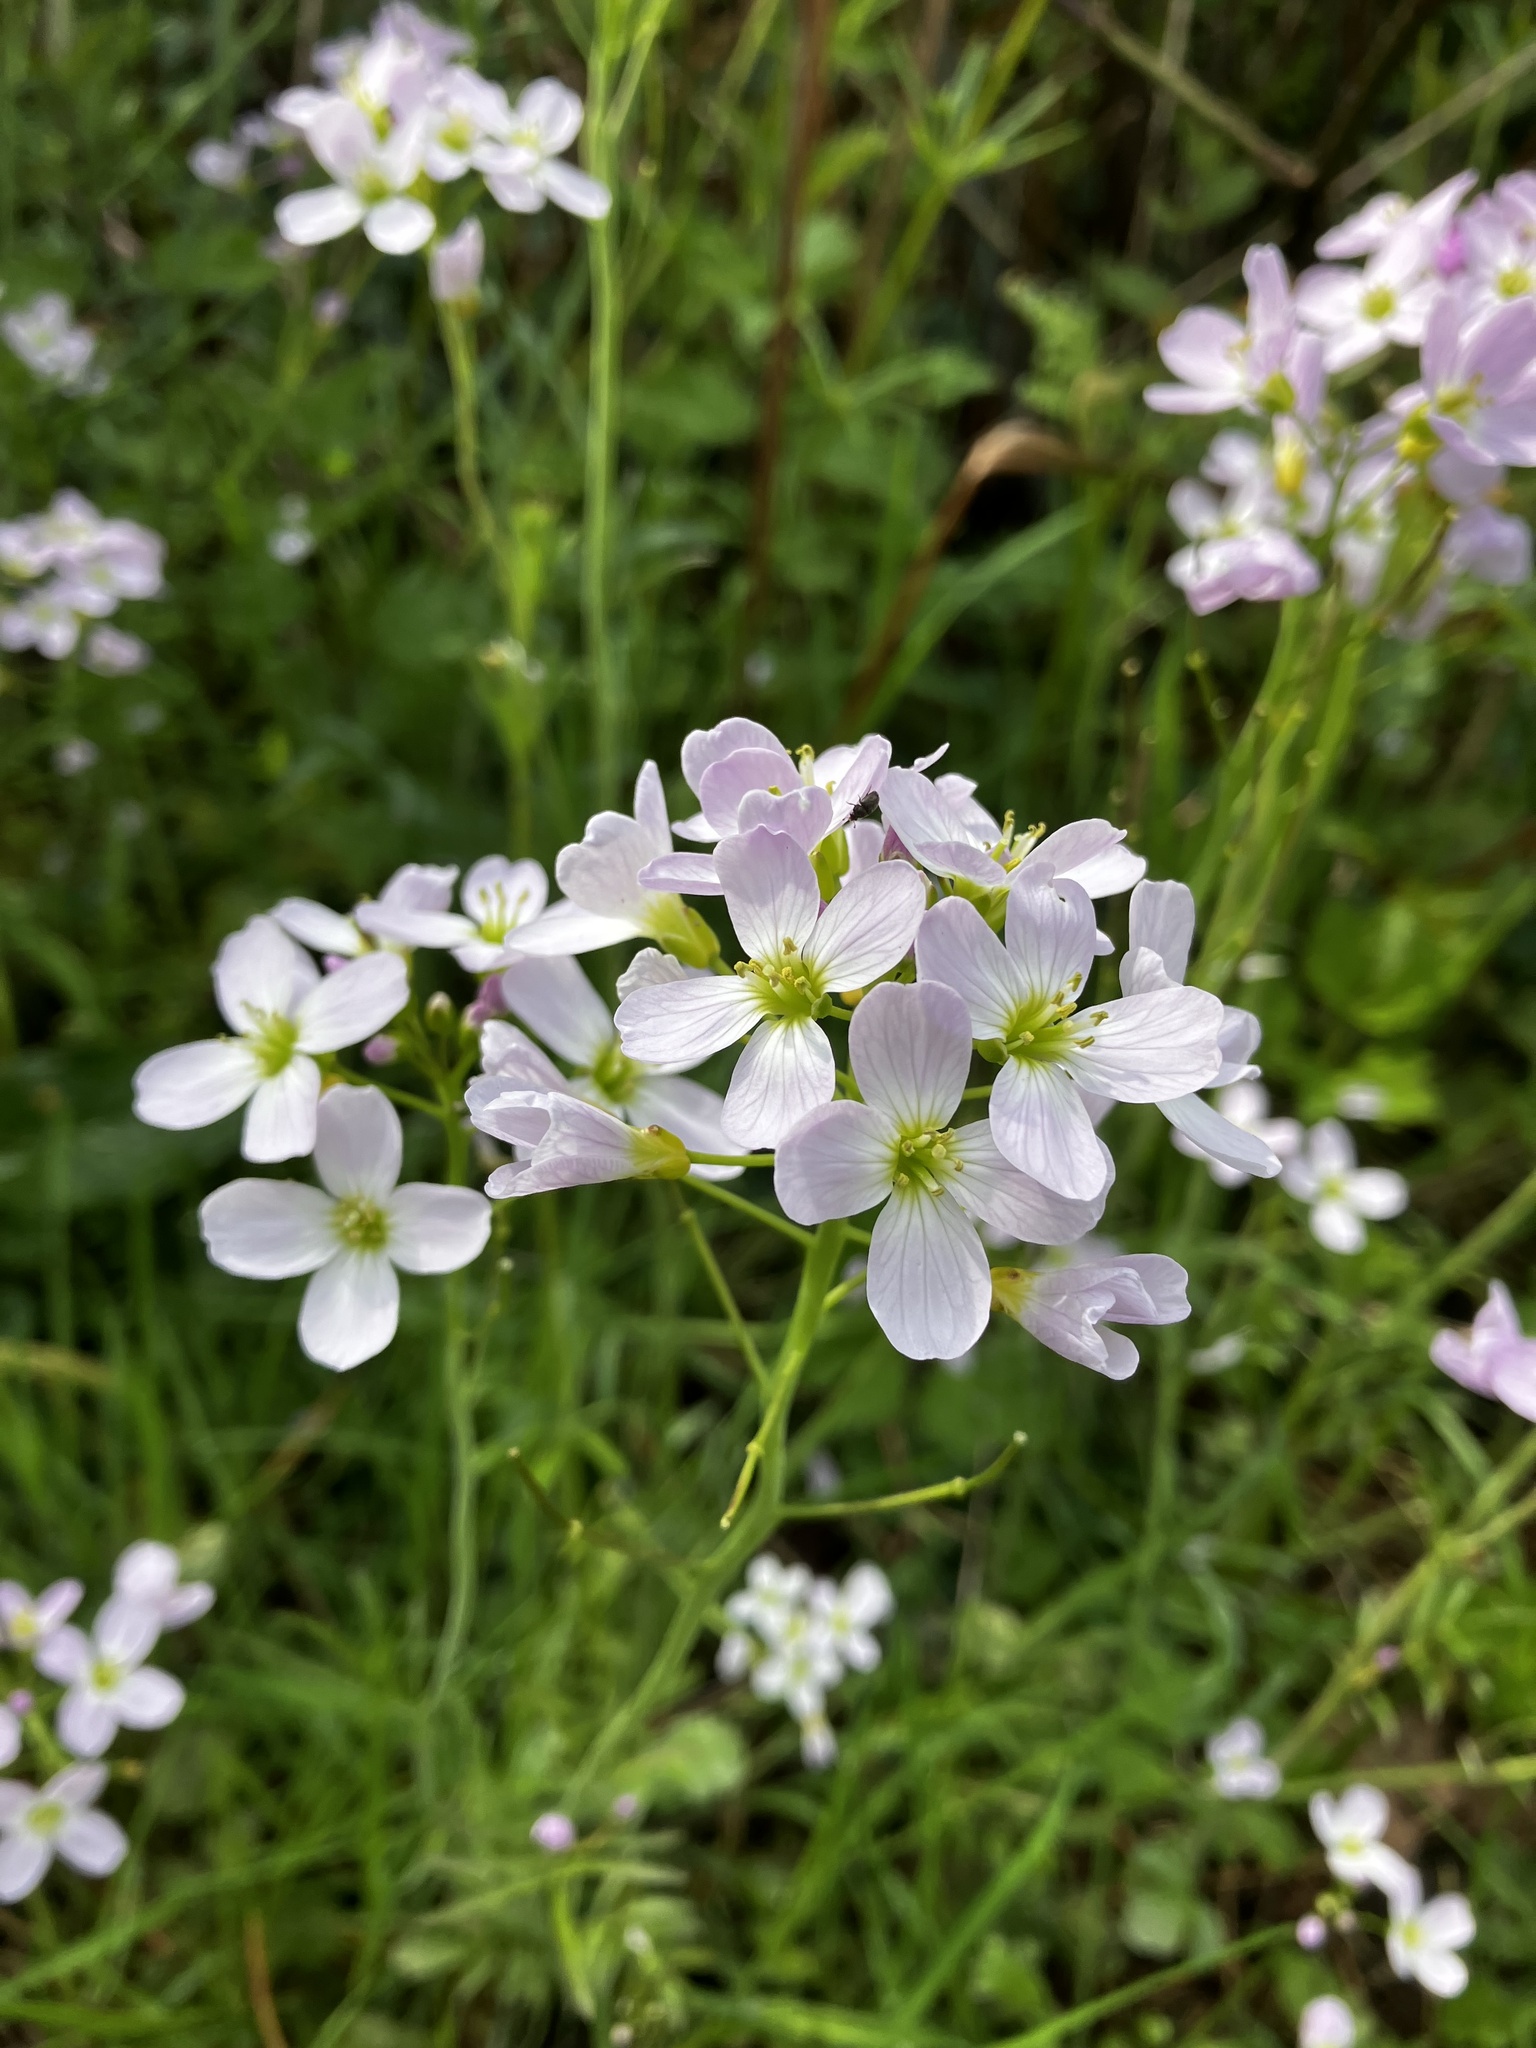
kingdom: Plantae
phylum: Tracheophyta
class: Magnoliopsida
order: Brassicales
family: Brassicaceae
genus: Cardamine
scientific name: Cardamine pratensis
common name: Cuckoo flower
